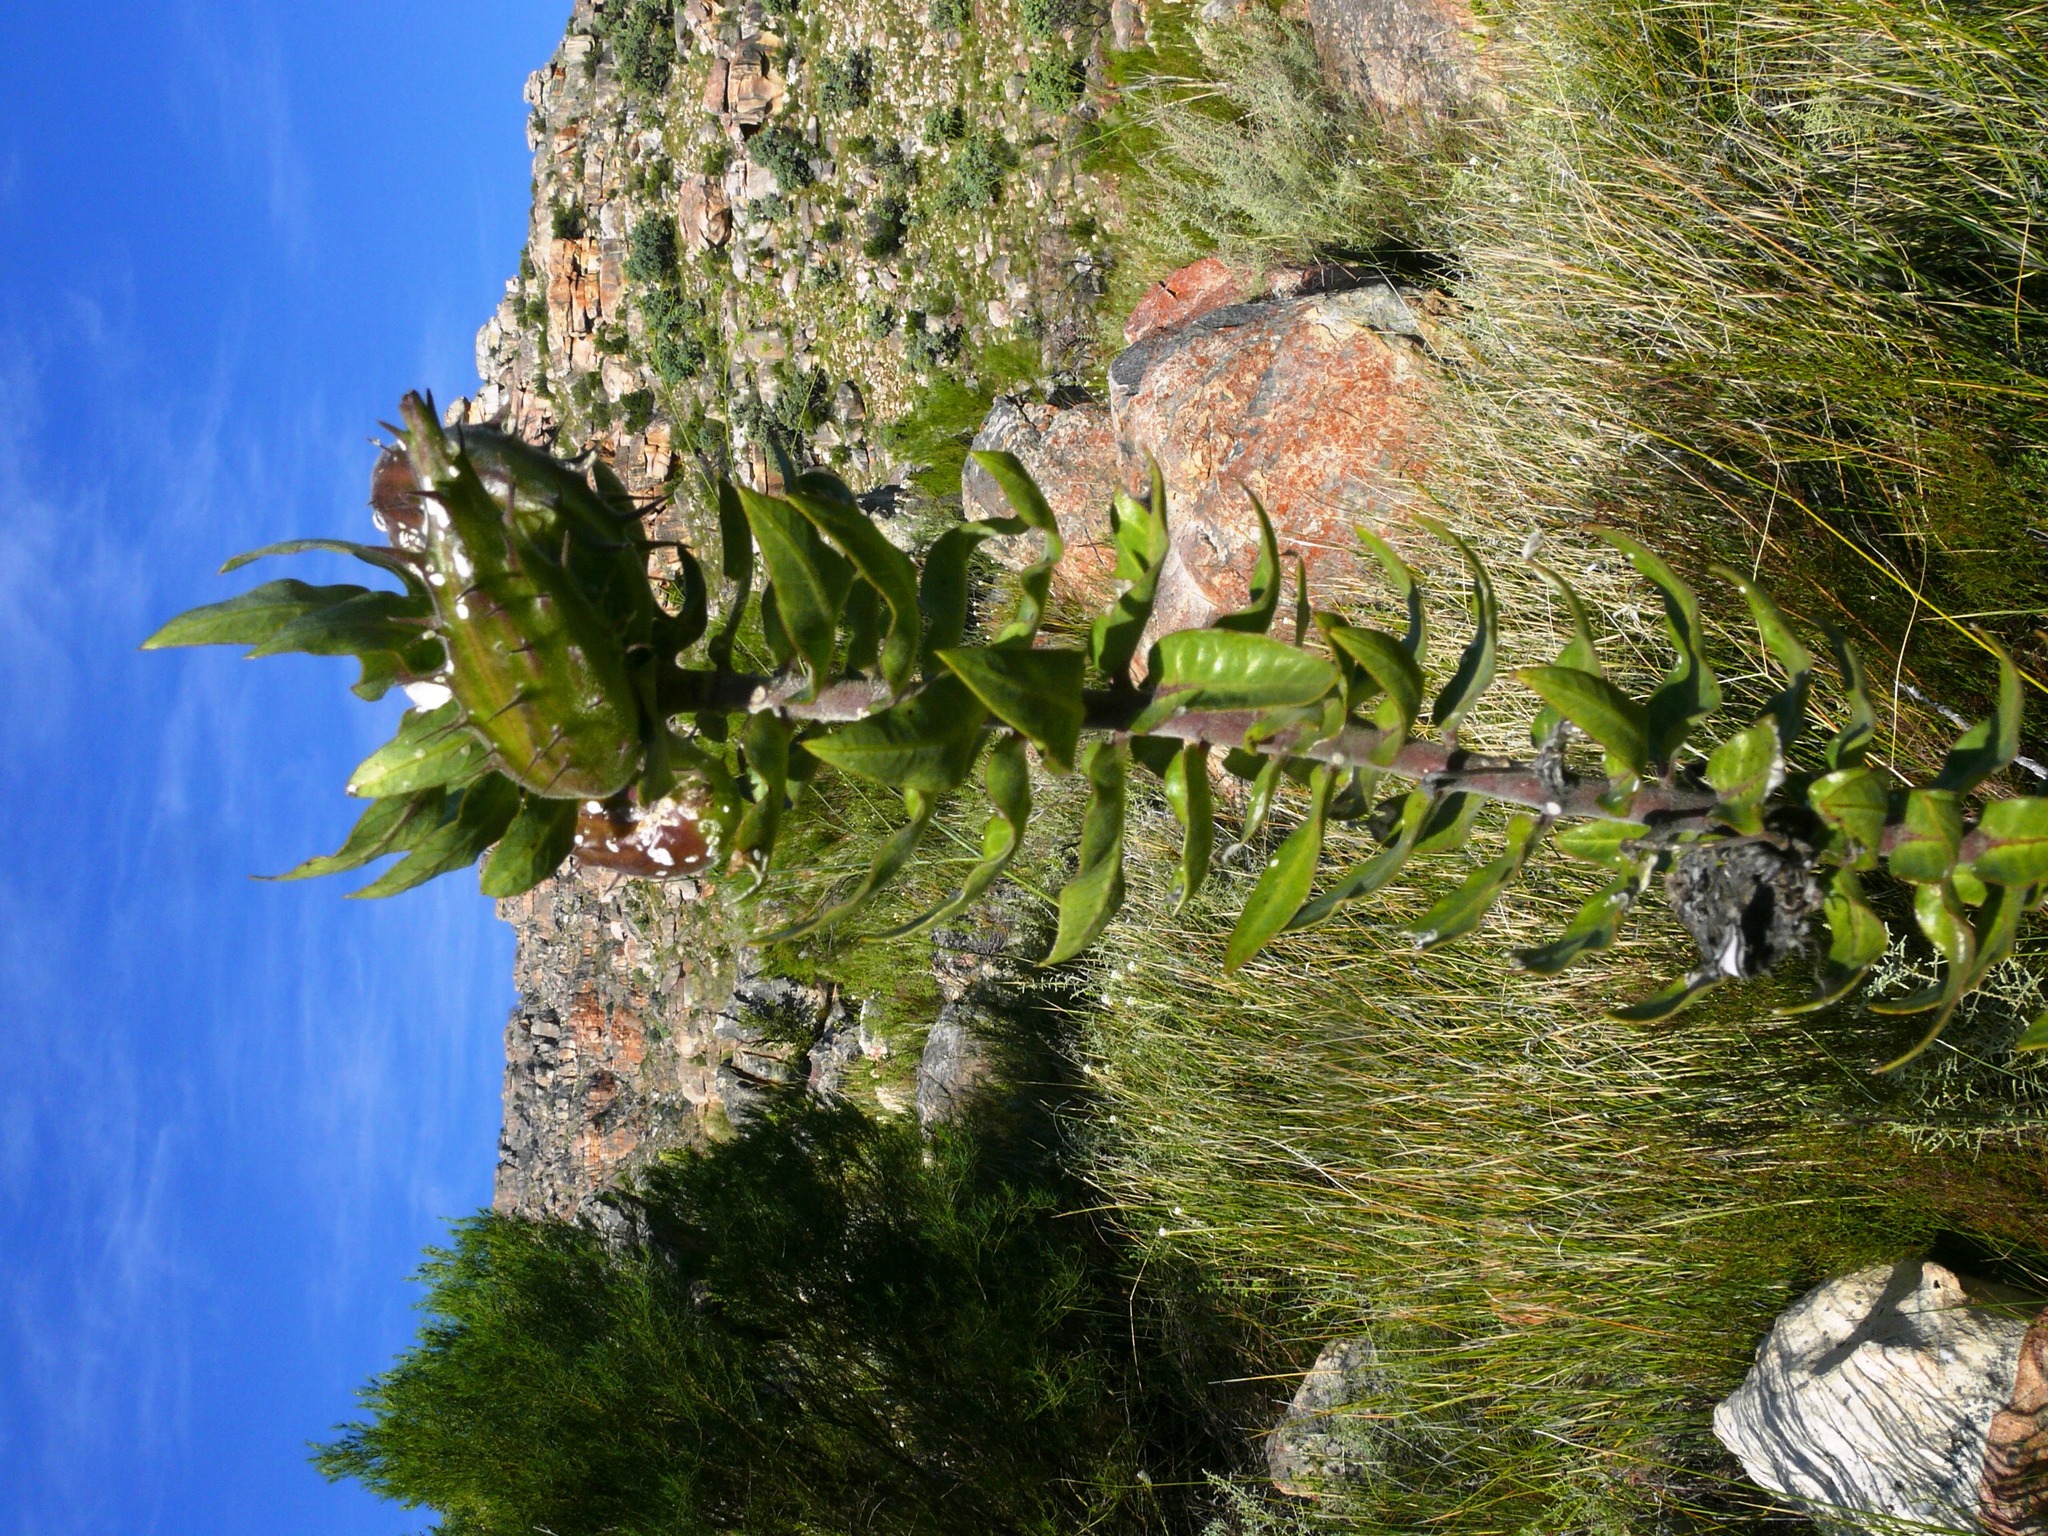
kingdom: Plantae
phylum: Tracheophyta
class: Magnoliopsida
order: Gentianales
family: Apocynaceae
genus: Gomphocarpus
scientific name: Gomphocarpus cancellatus
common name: Wild cotton
